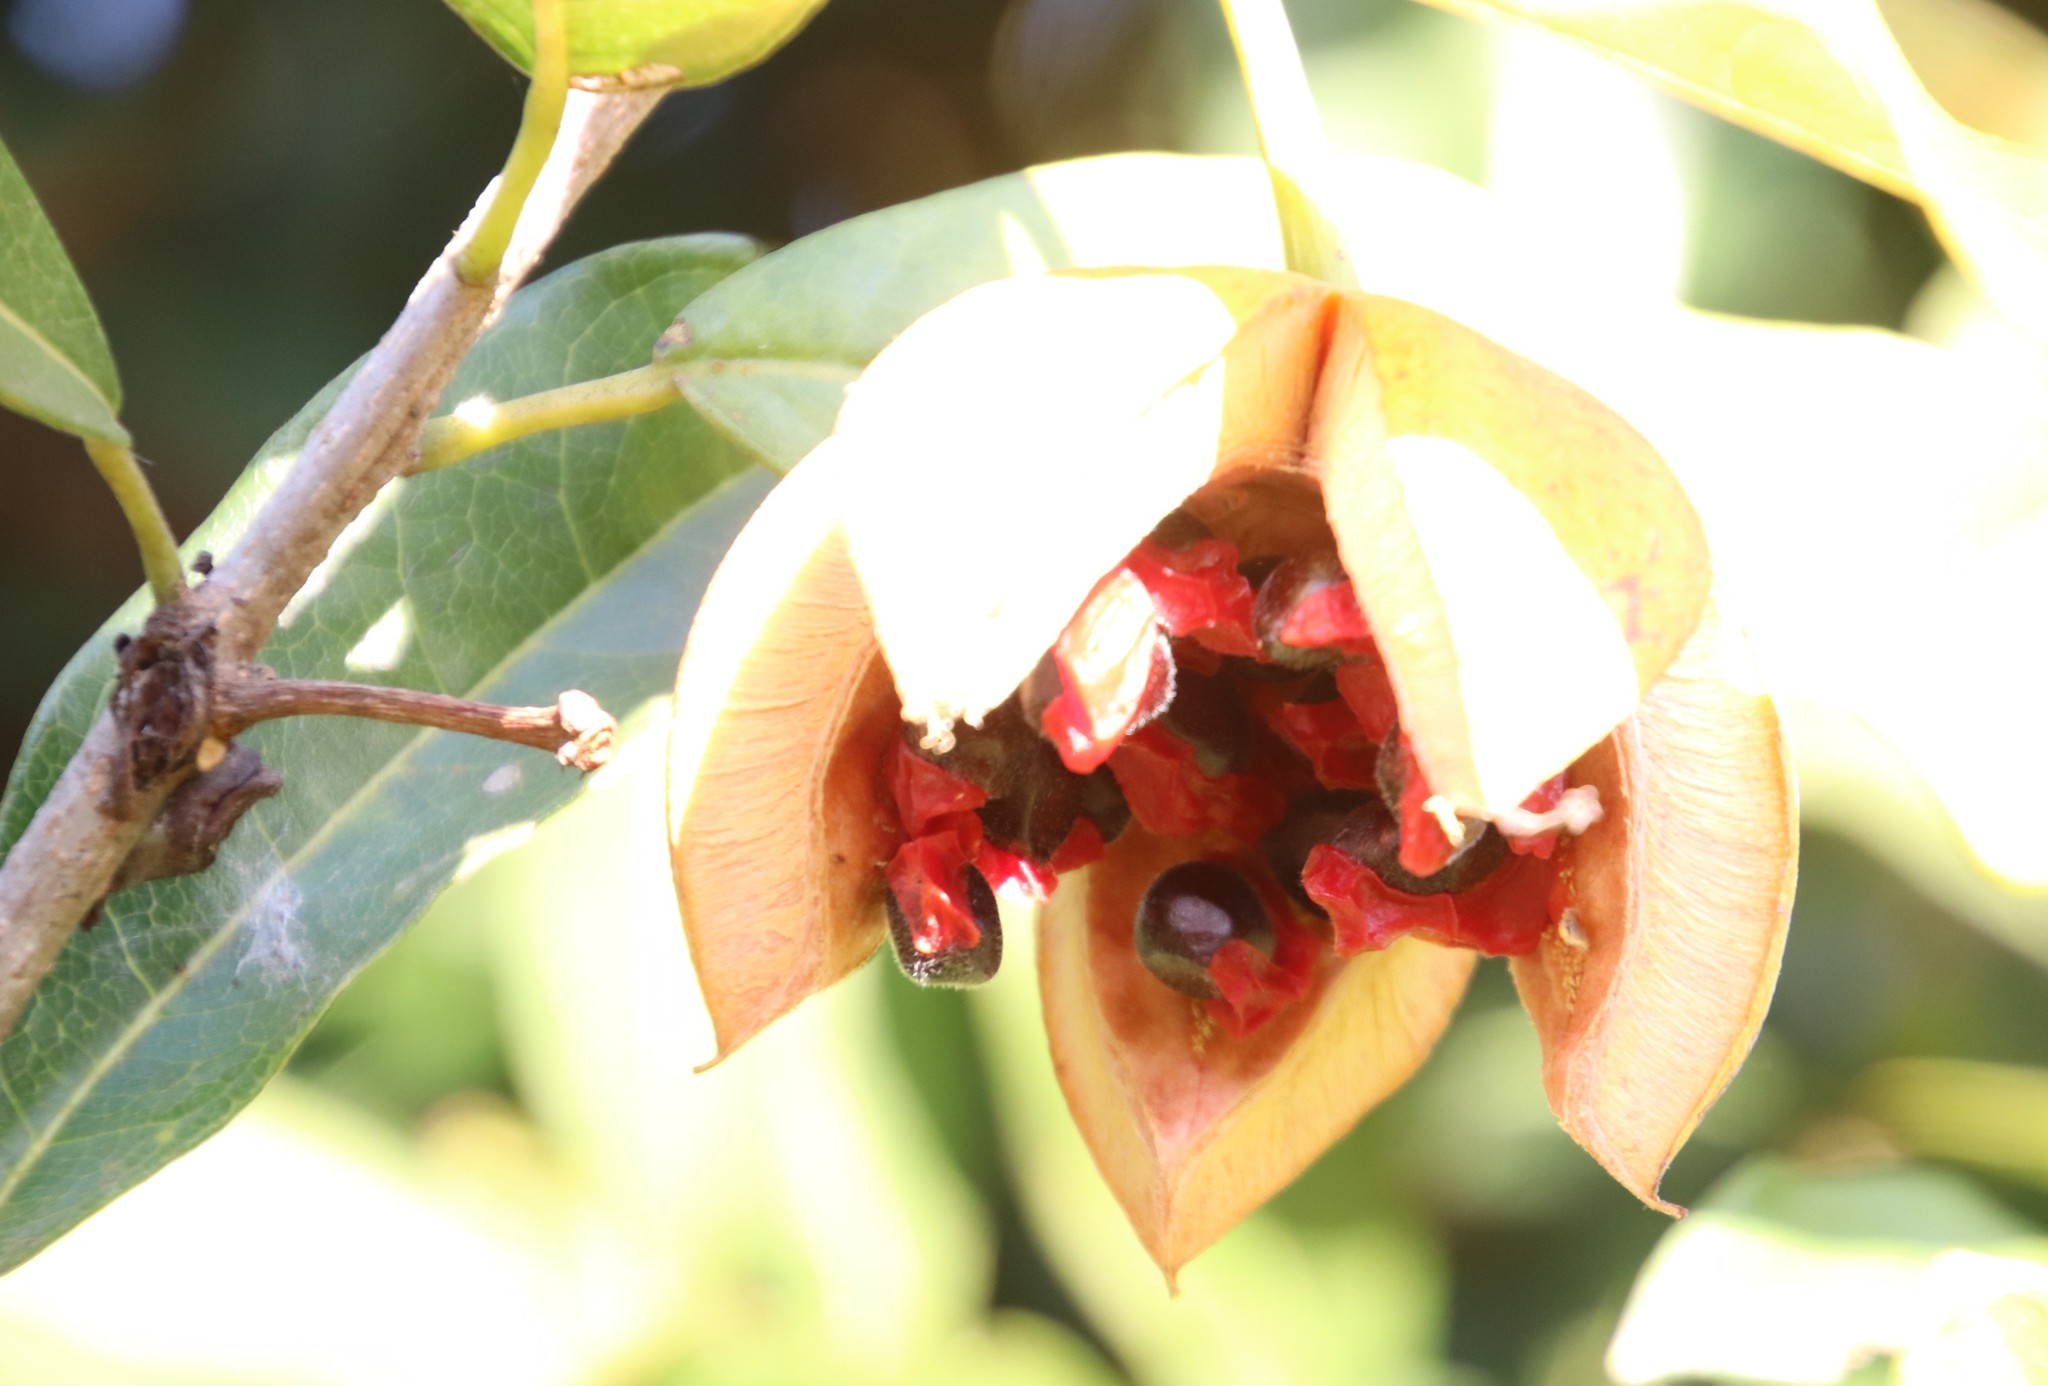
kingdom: Plantae
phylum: Tracheophyta
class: Magnoliopsida
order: Malpighiales
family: Achariaceae
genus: Xylotheca
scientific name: Xylotheca kraussiana
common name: African dog rose
